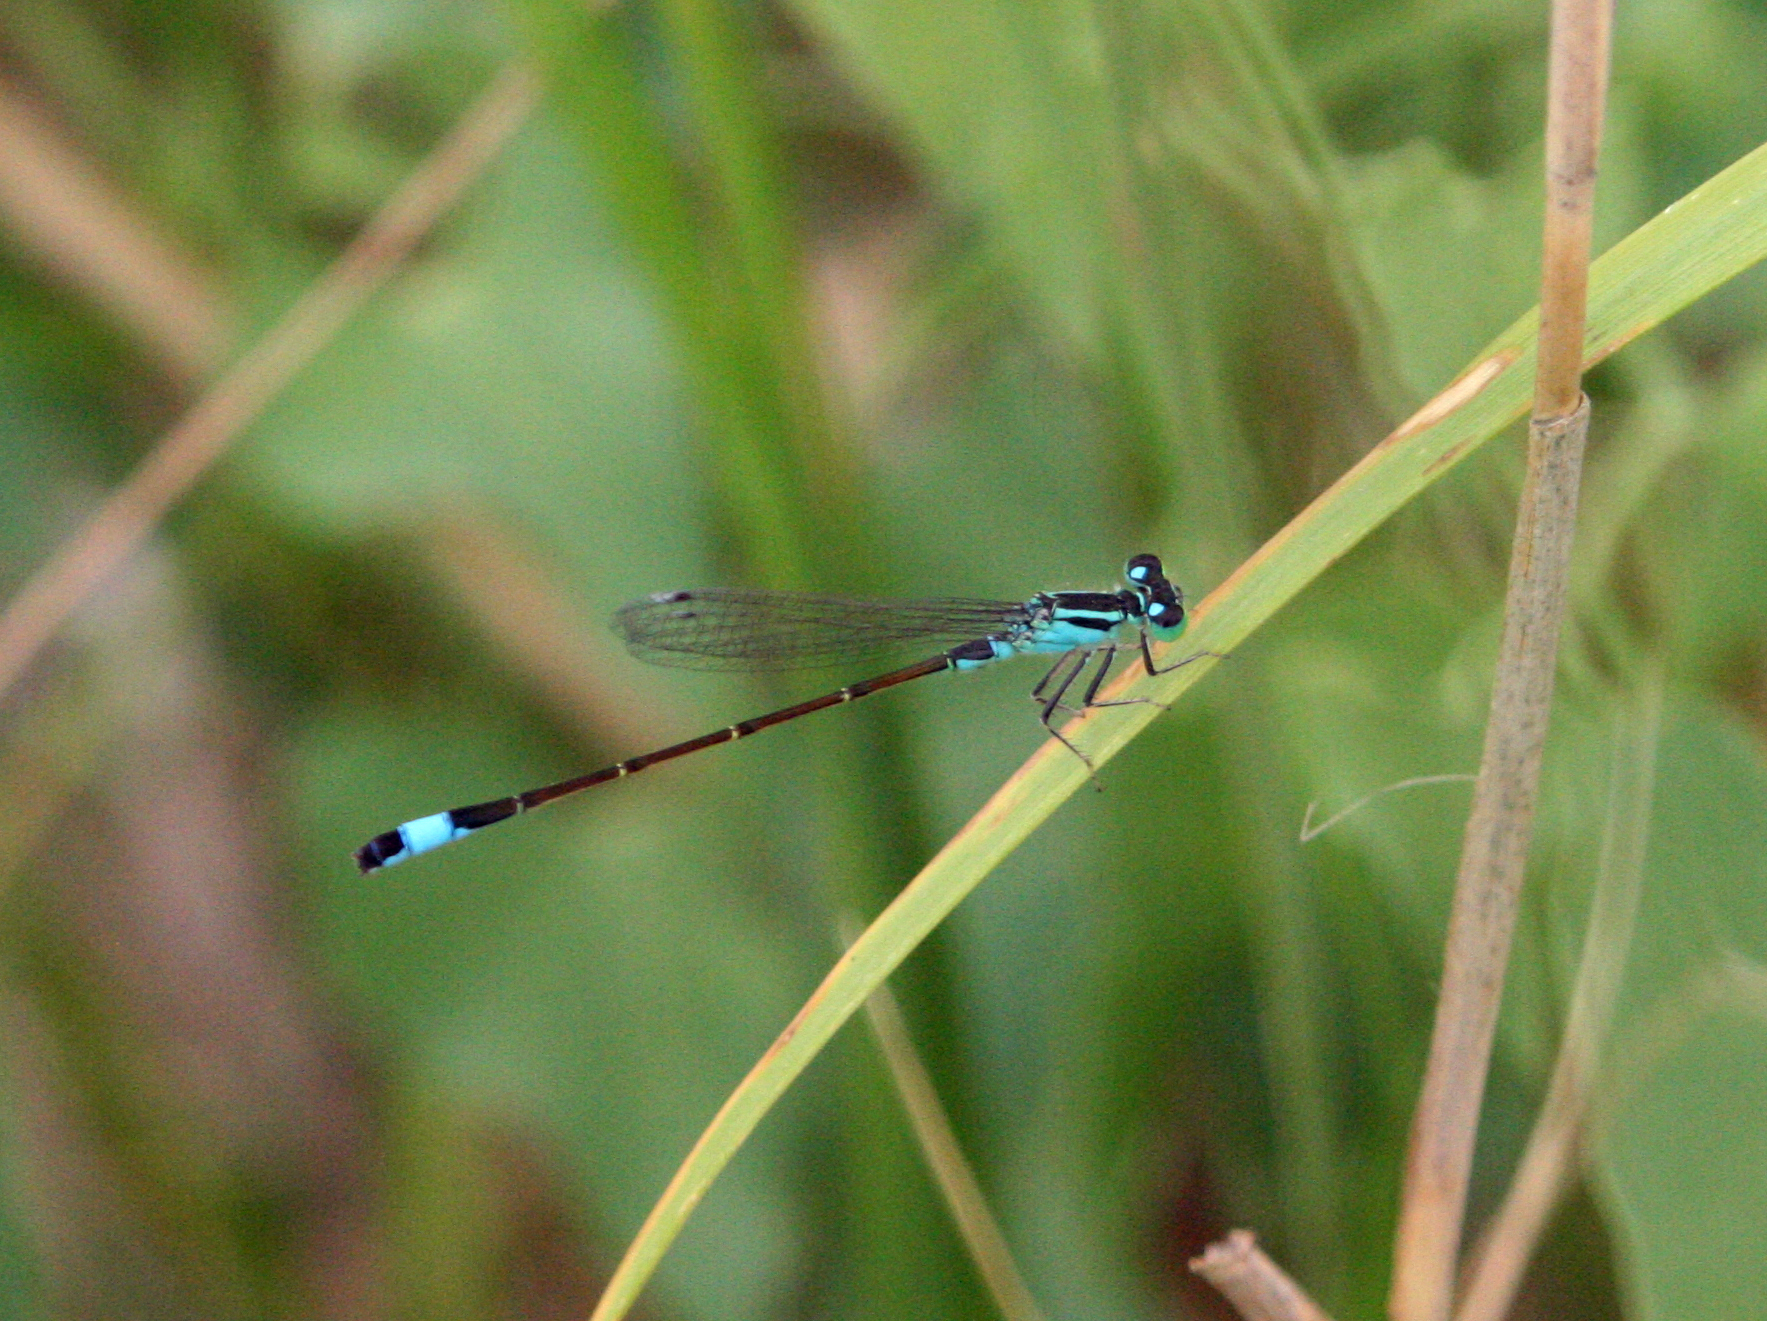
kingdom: Animalia
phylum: Arthropoda
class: Insecta
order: Odonata
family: Coenagrionidae
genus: Ischnura
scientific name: Ischnura elegans
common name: Blue-tailed damselfly
